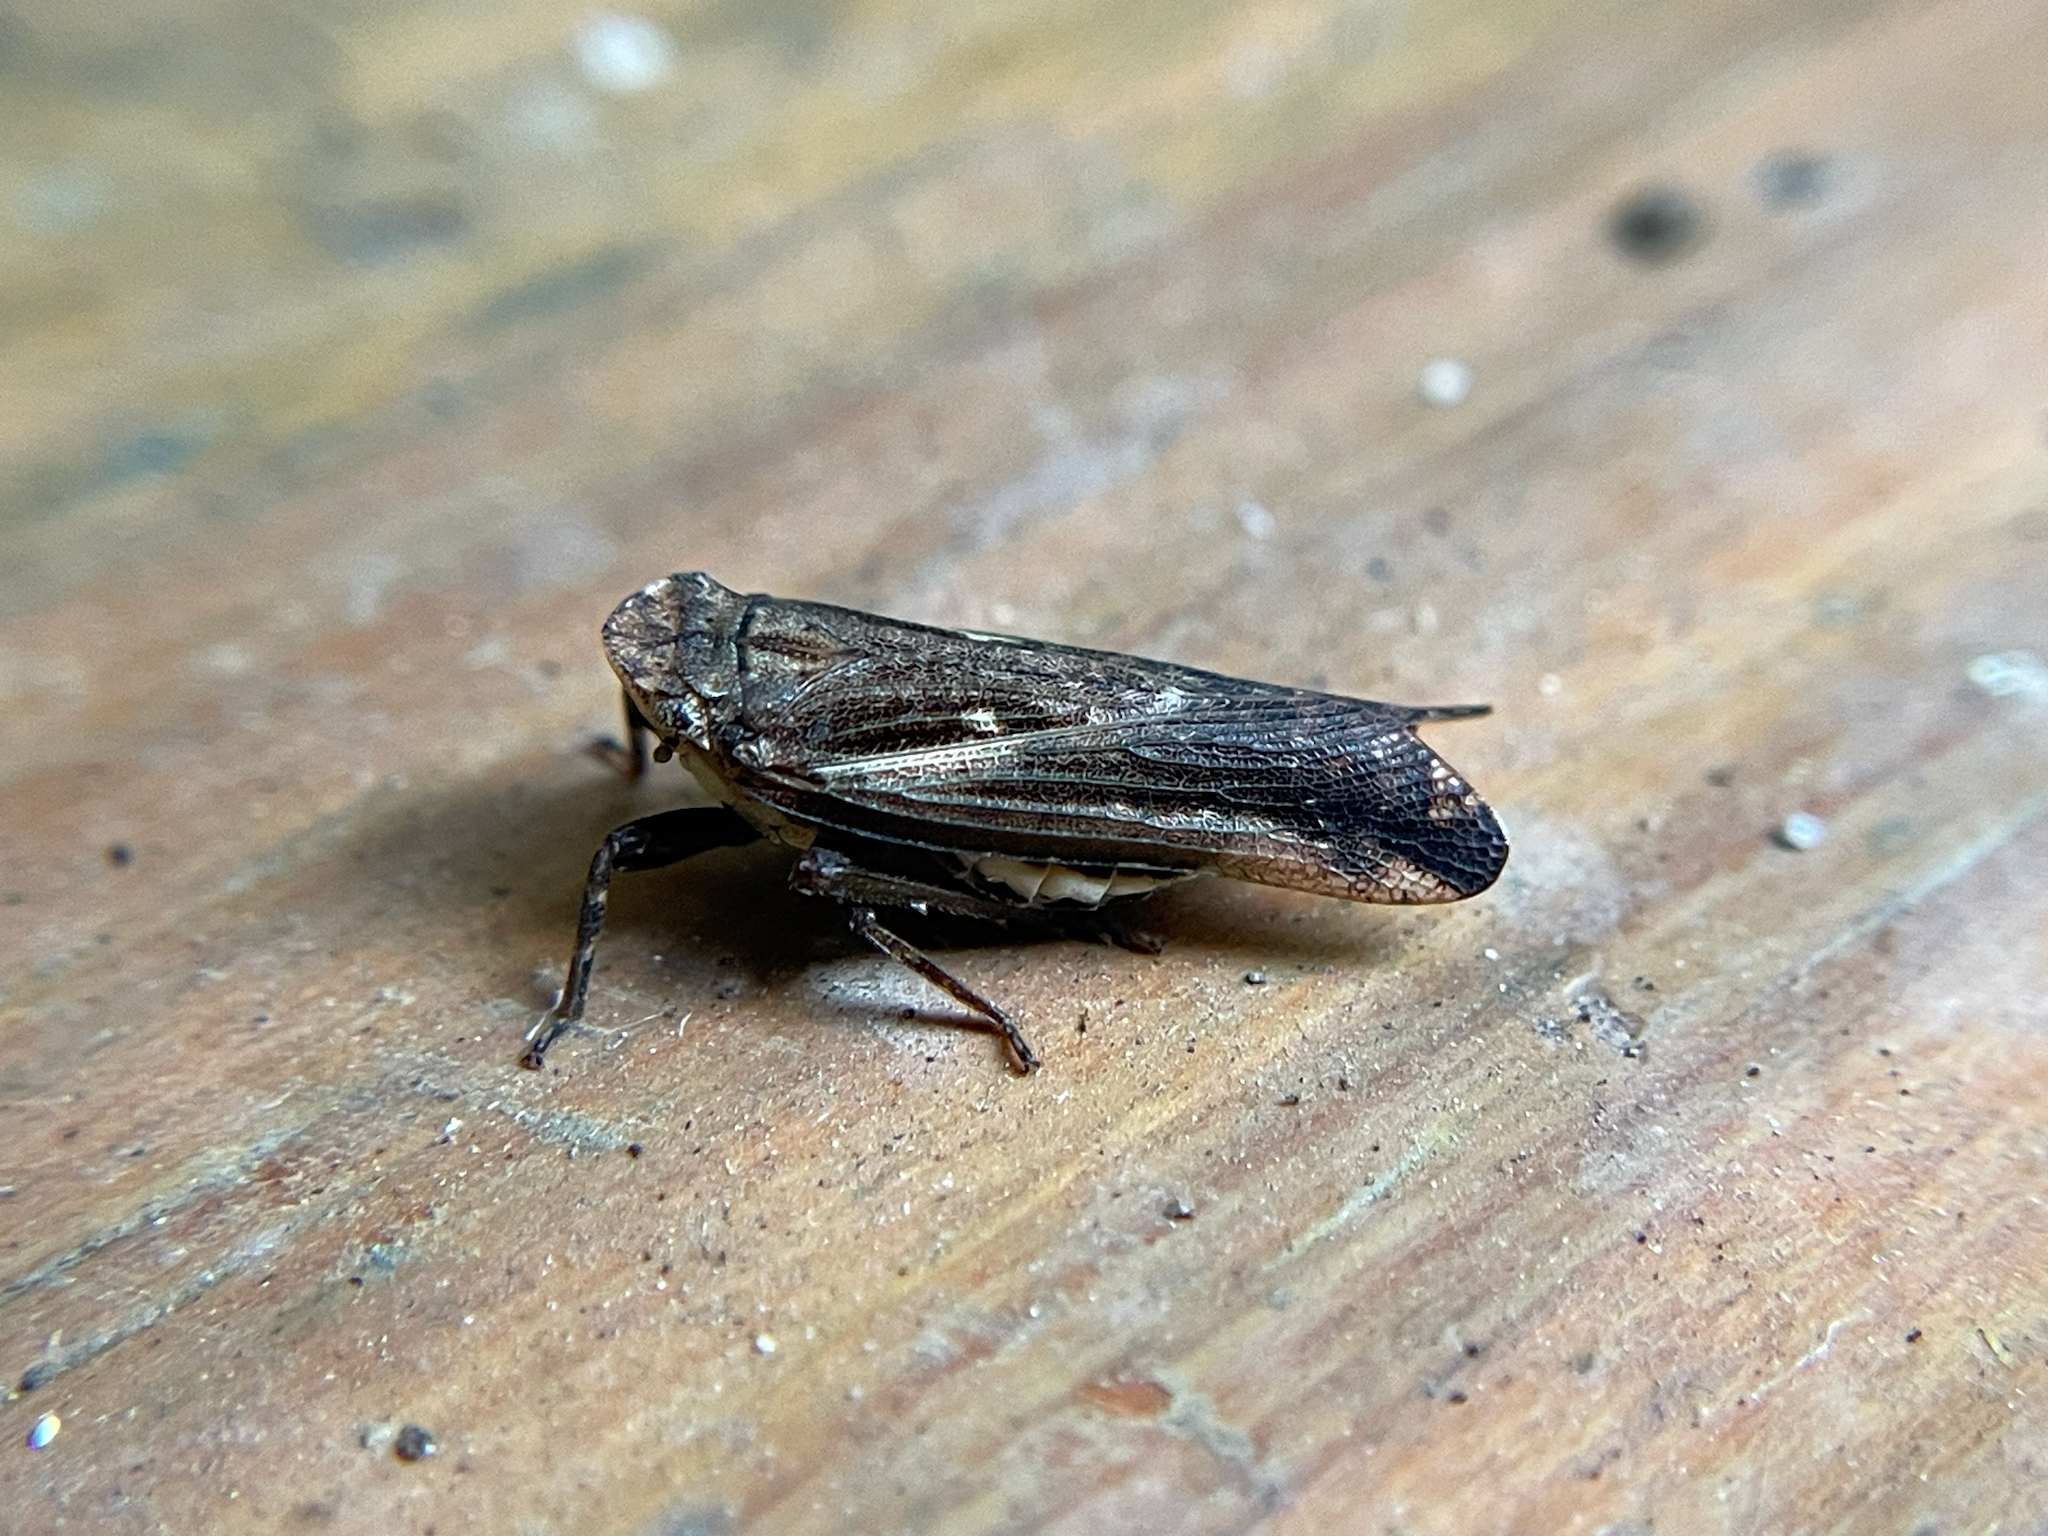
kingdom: Animalia
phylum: Arthropoda
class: Insecta
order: Hemiptera
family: Fulgoridae
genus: Cyrpoptus
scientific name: Cyrpoptus belfragei
